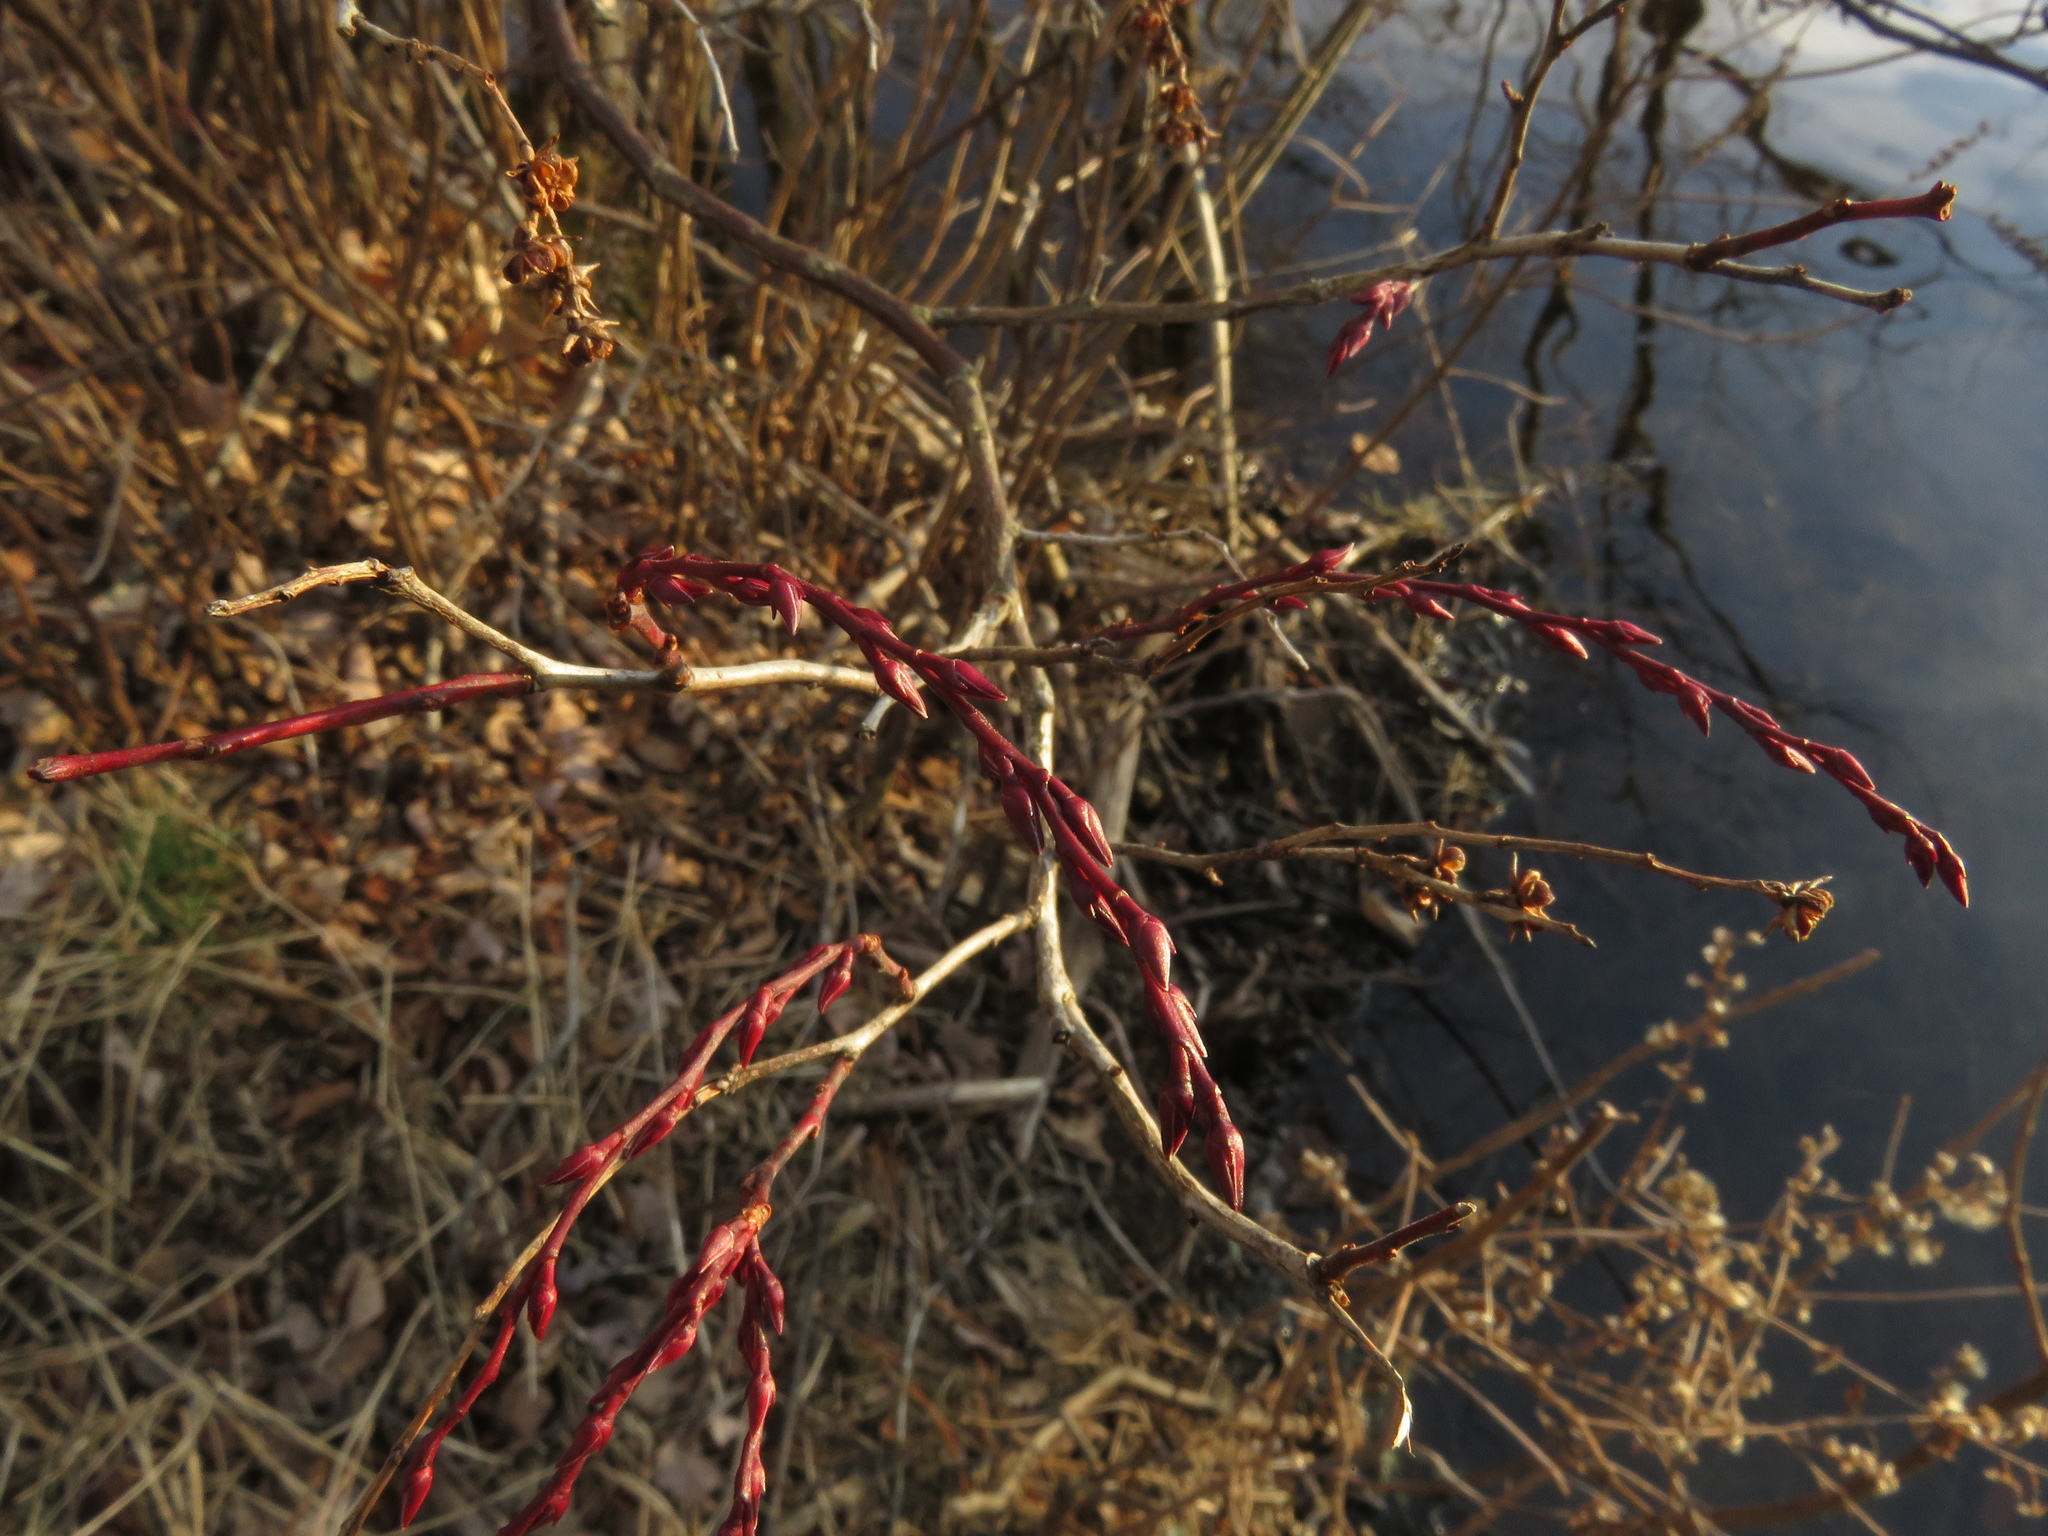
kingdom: Plantae
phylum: Tracheophyta
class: Magnoliopsida
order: Ericales
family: Ericaceae
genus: Eubotrys
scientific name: Eubotrys racemosa
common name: Fetterbush
